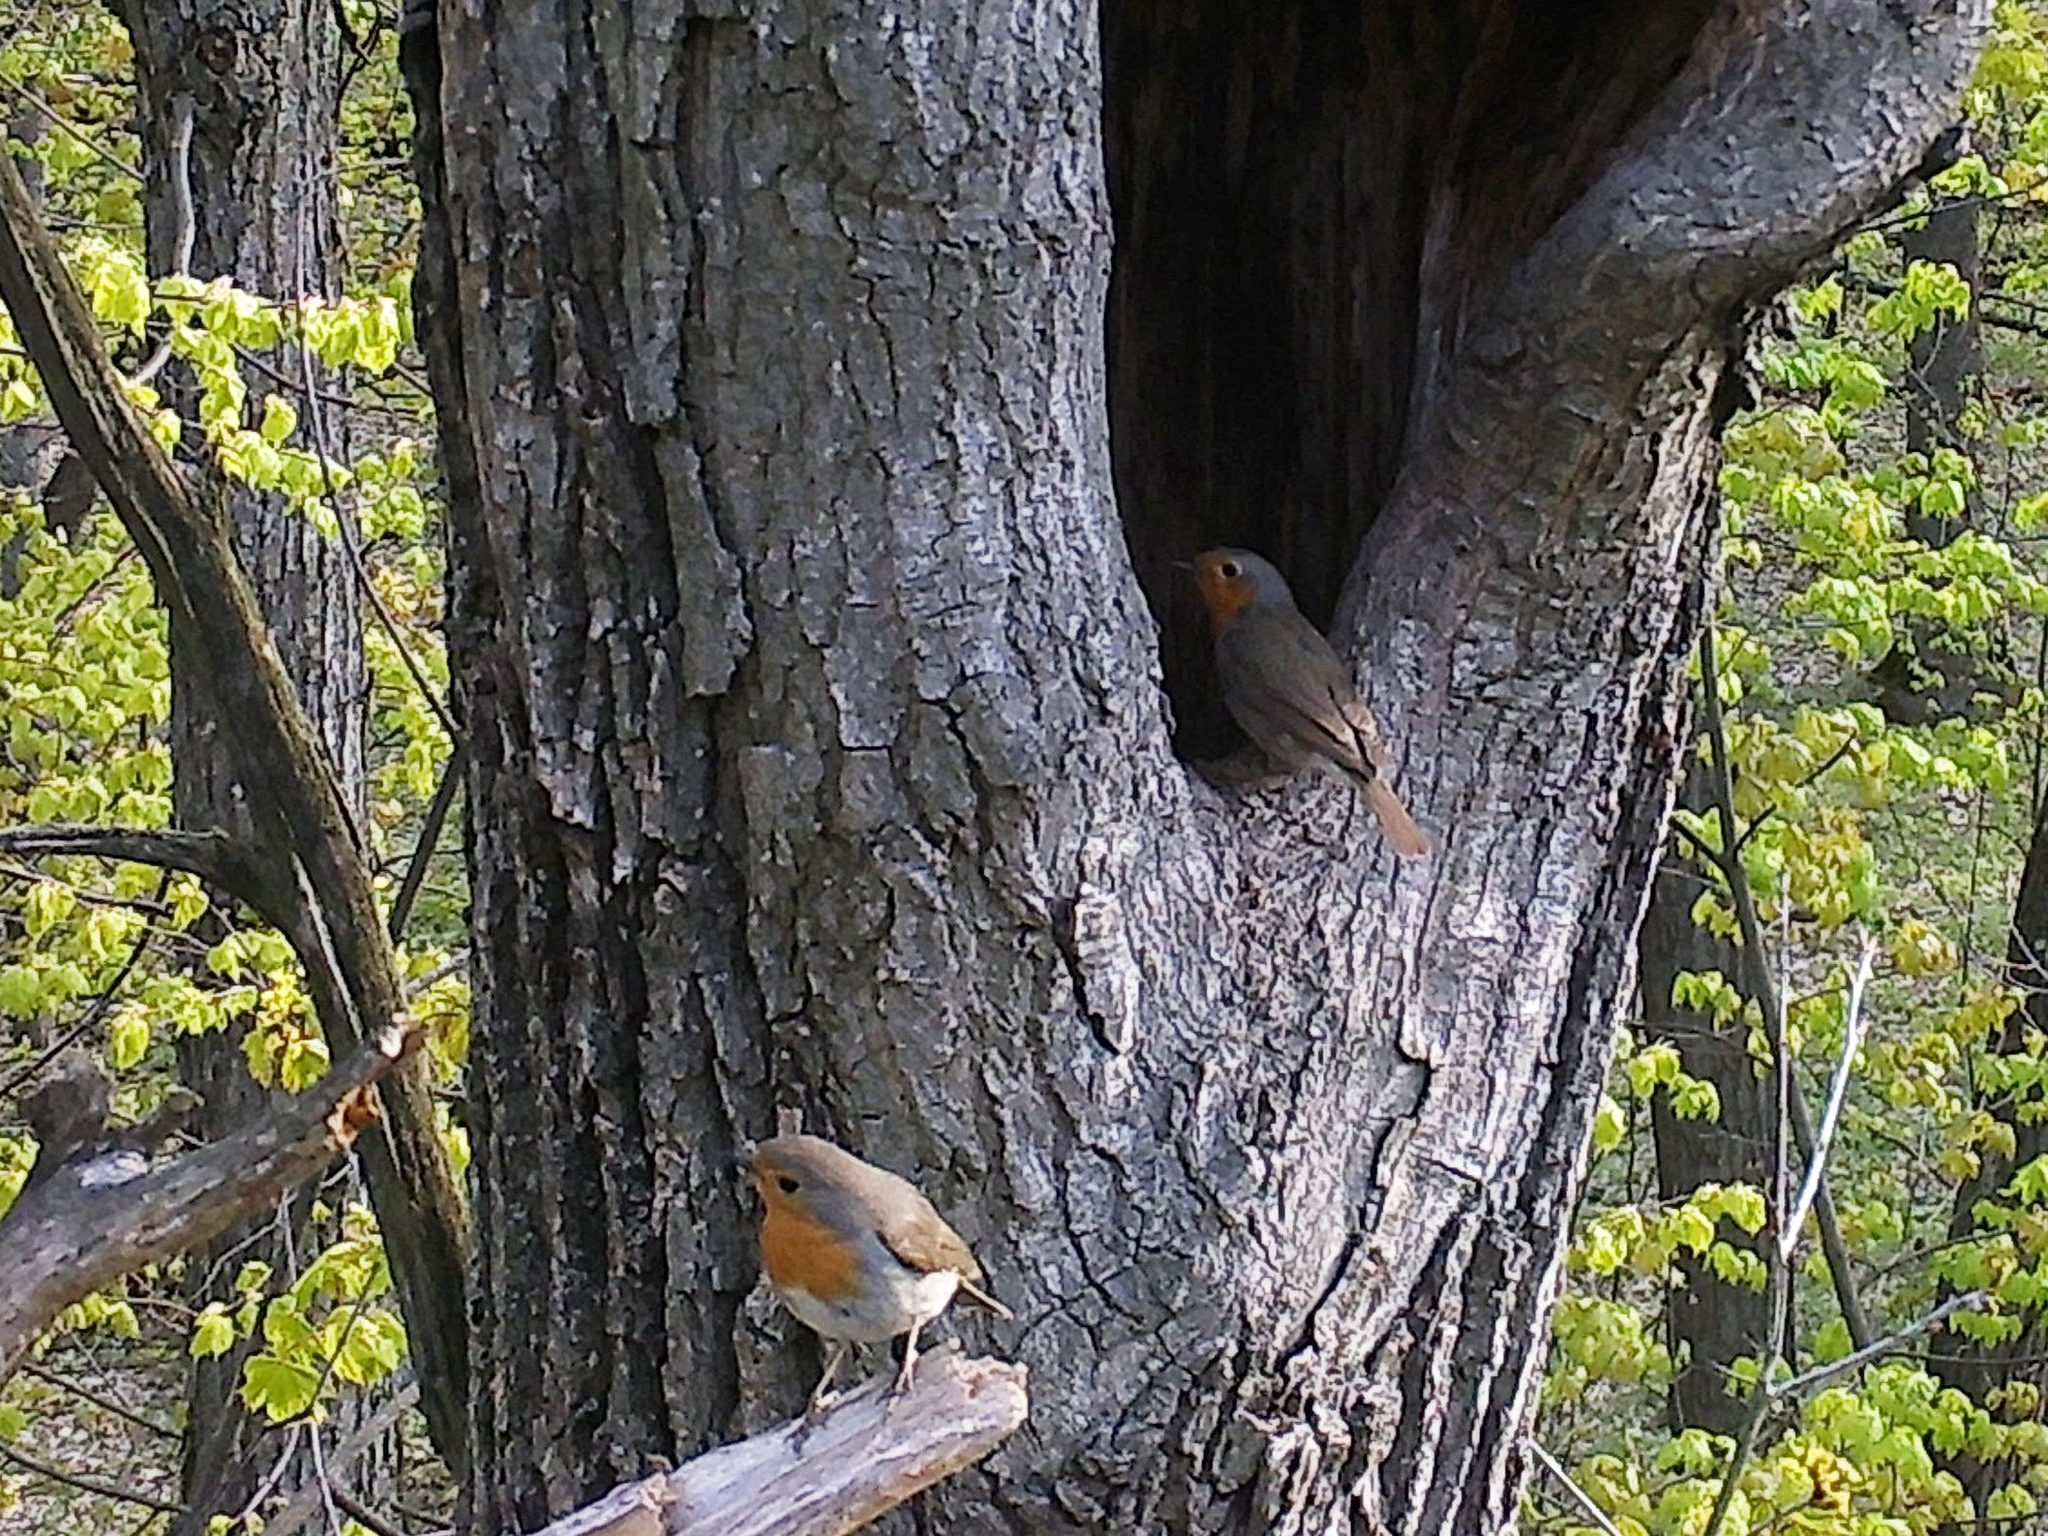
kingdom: Animalia
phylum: Chordata
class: Aves
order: Passeriformes
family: Muscicapidae
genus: Erithacus
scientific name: Erithacus rubecula
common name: European robin
